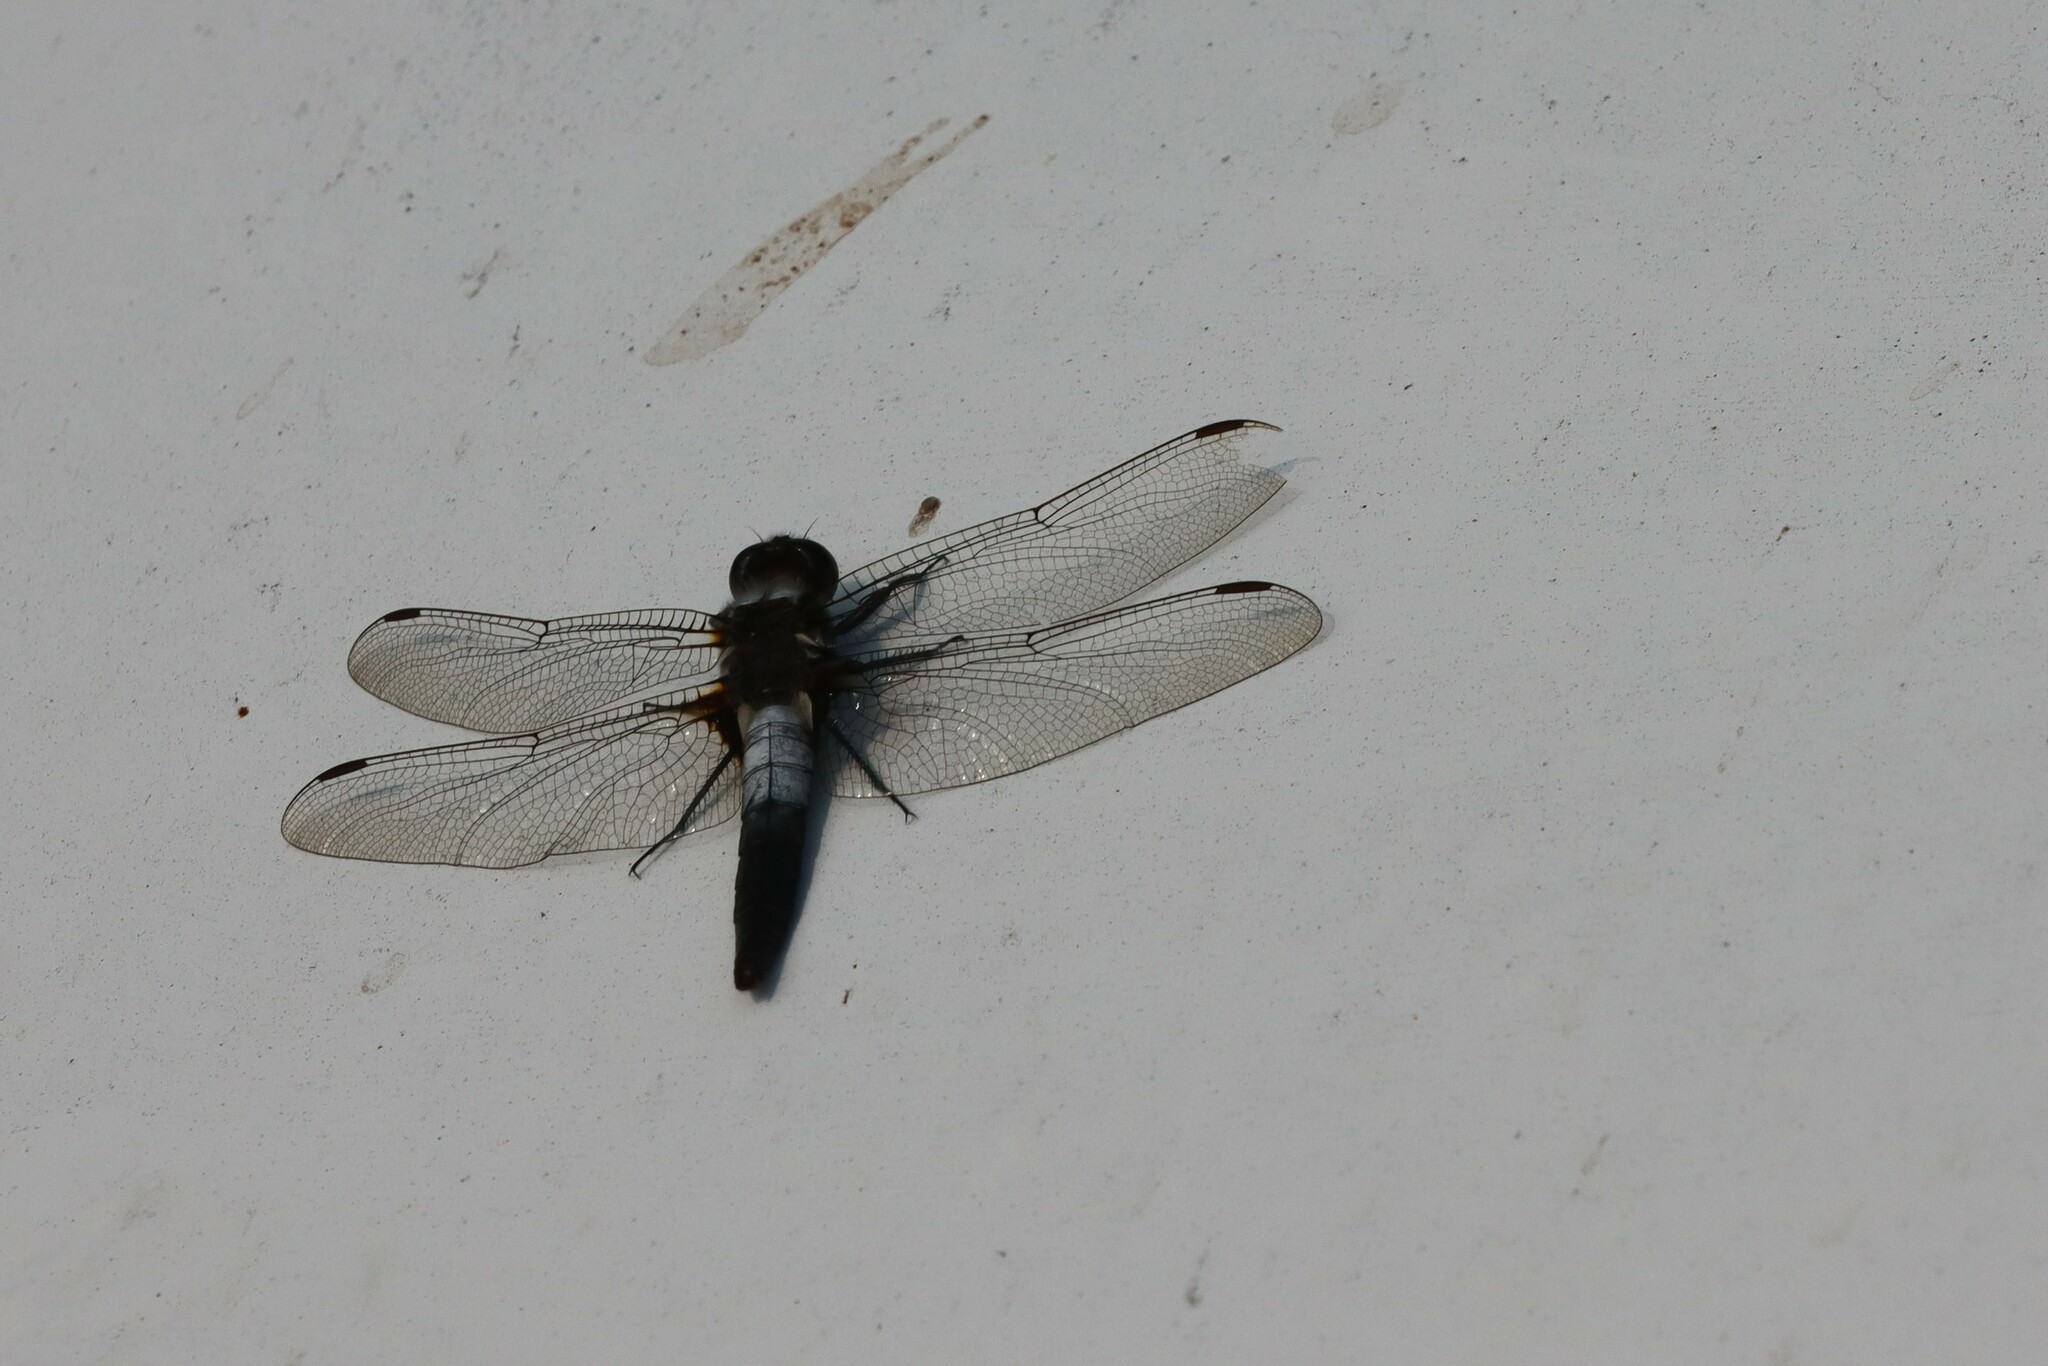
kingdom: Animalia
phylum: Arthropoda
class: Insecta
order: Odonata
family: Libellulidae
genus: Ladona
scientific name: Ladona julia
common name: Chalk-fronted corporal
